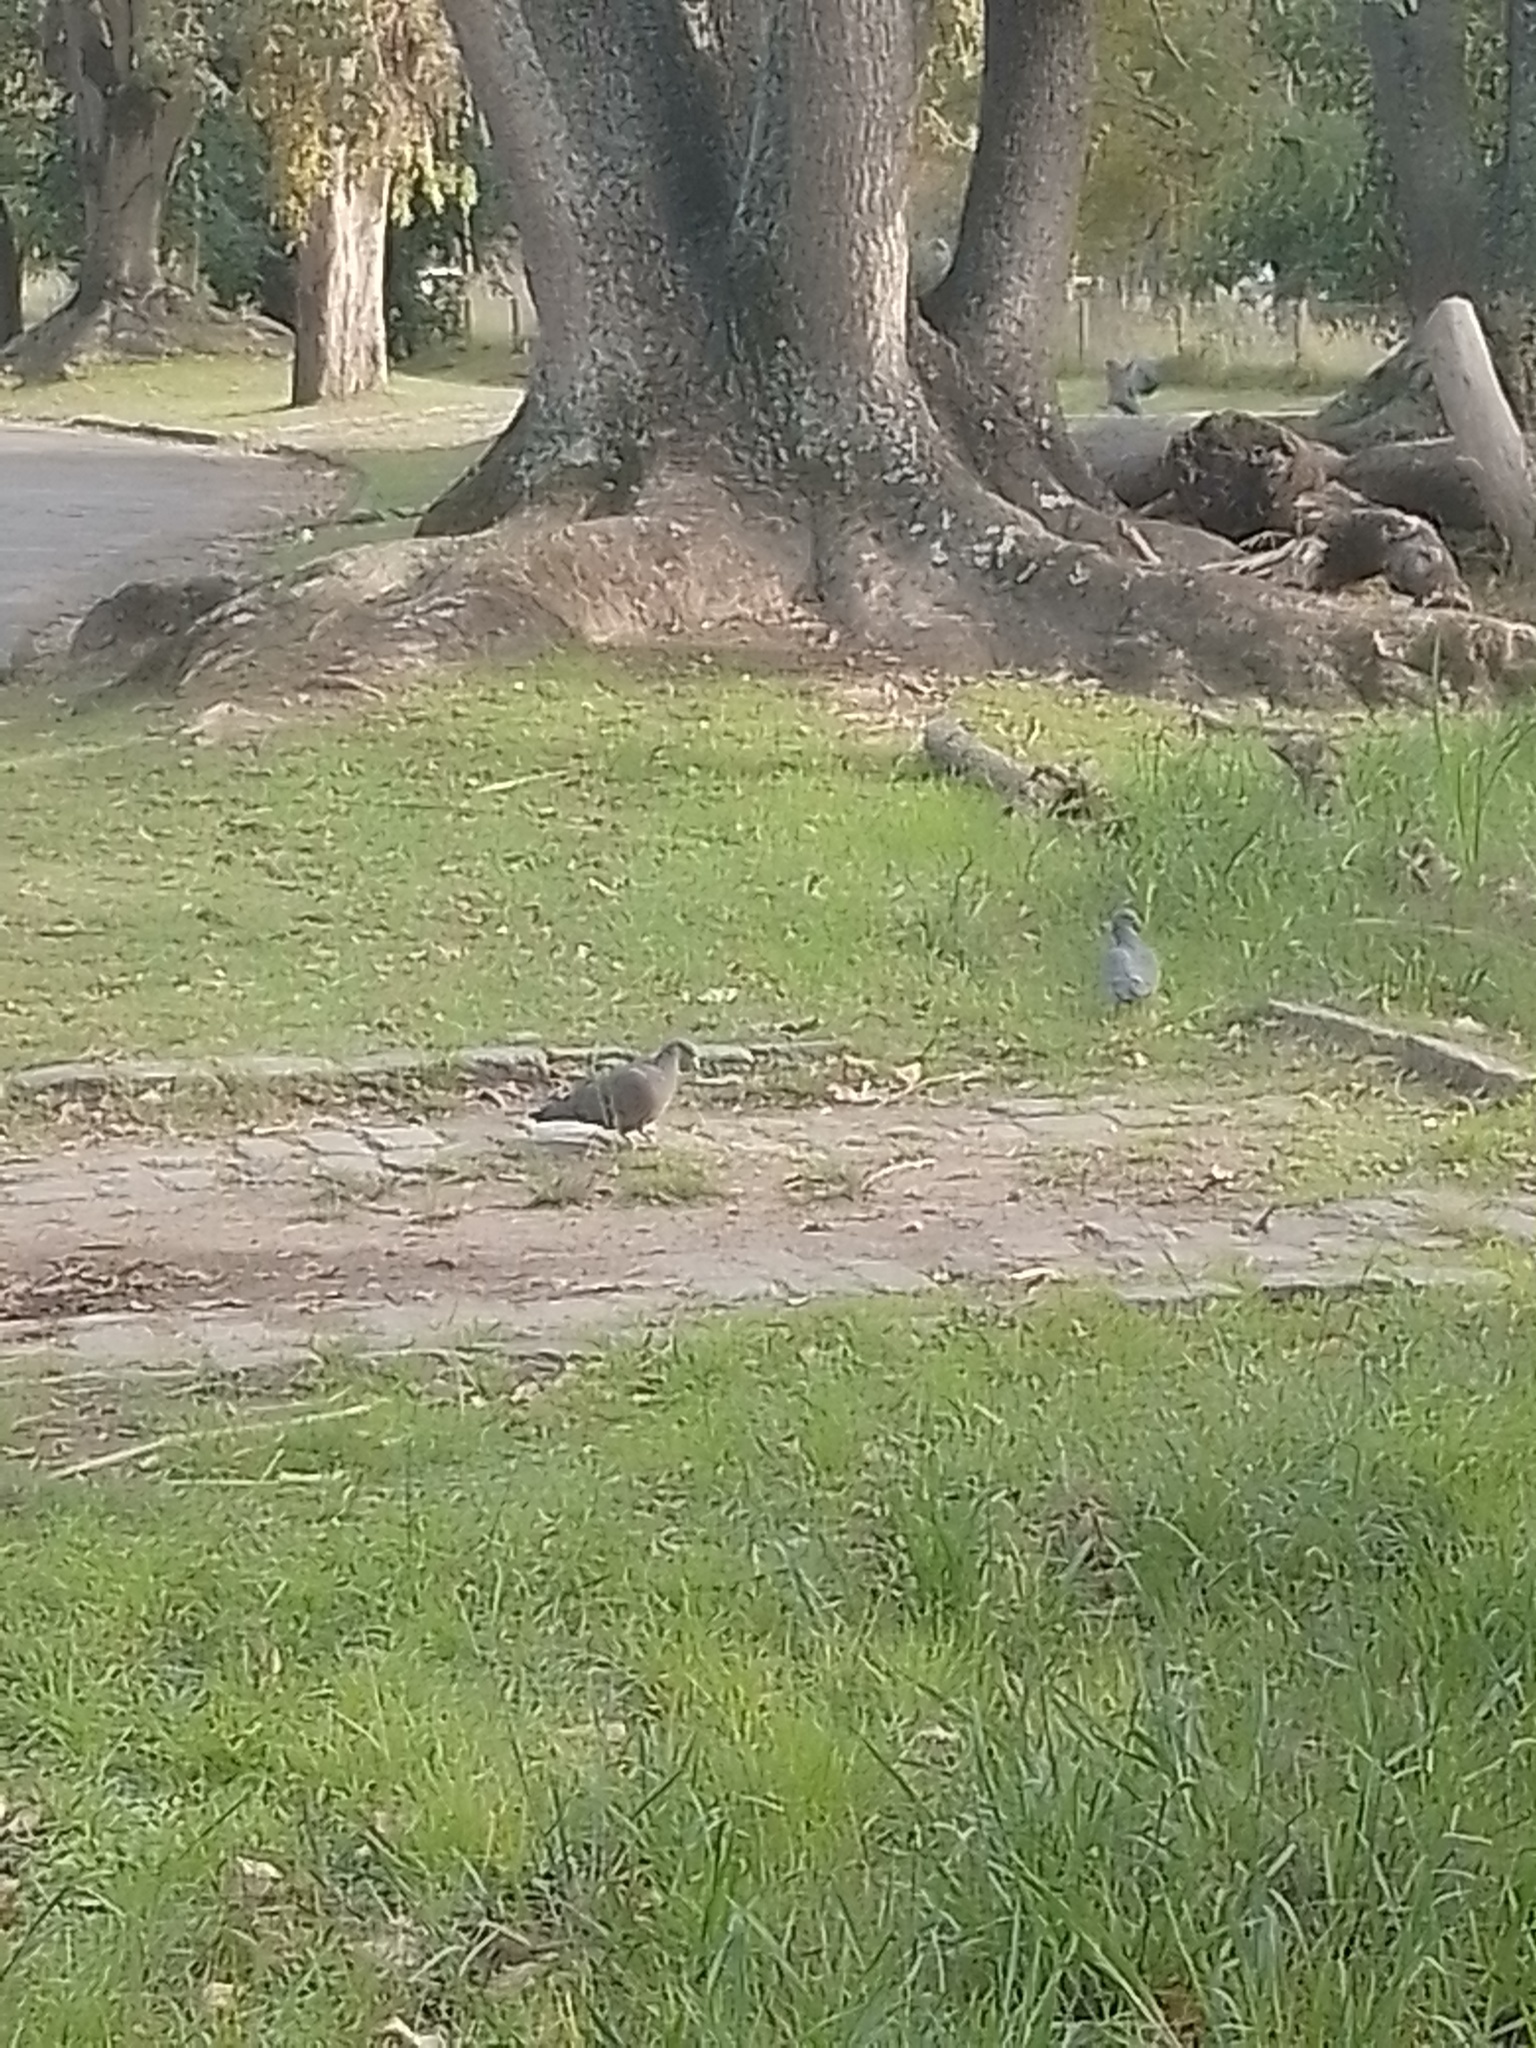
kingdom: Animalia
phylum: Chordata
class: Aves
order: Columbiformes
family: Columbidae
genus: Patagioenas
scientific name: Patagioenas picazuro
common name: Picazuro pigeon
